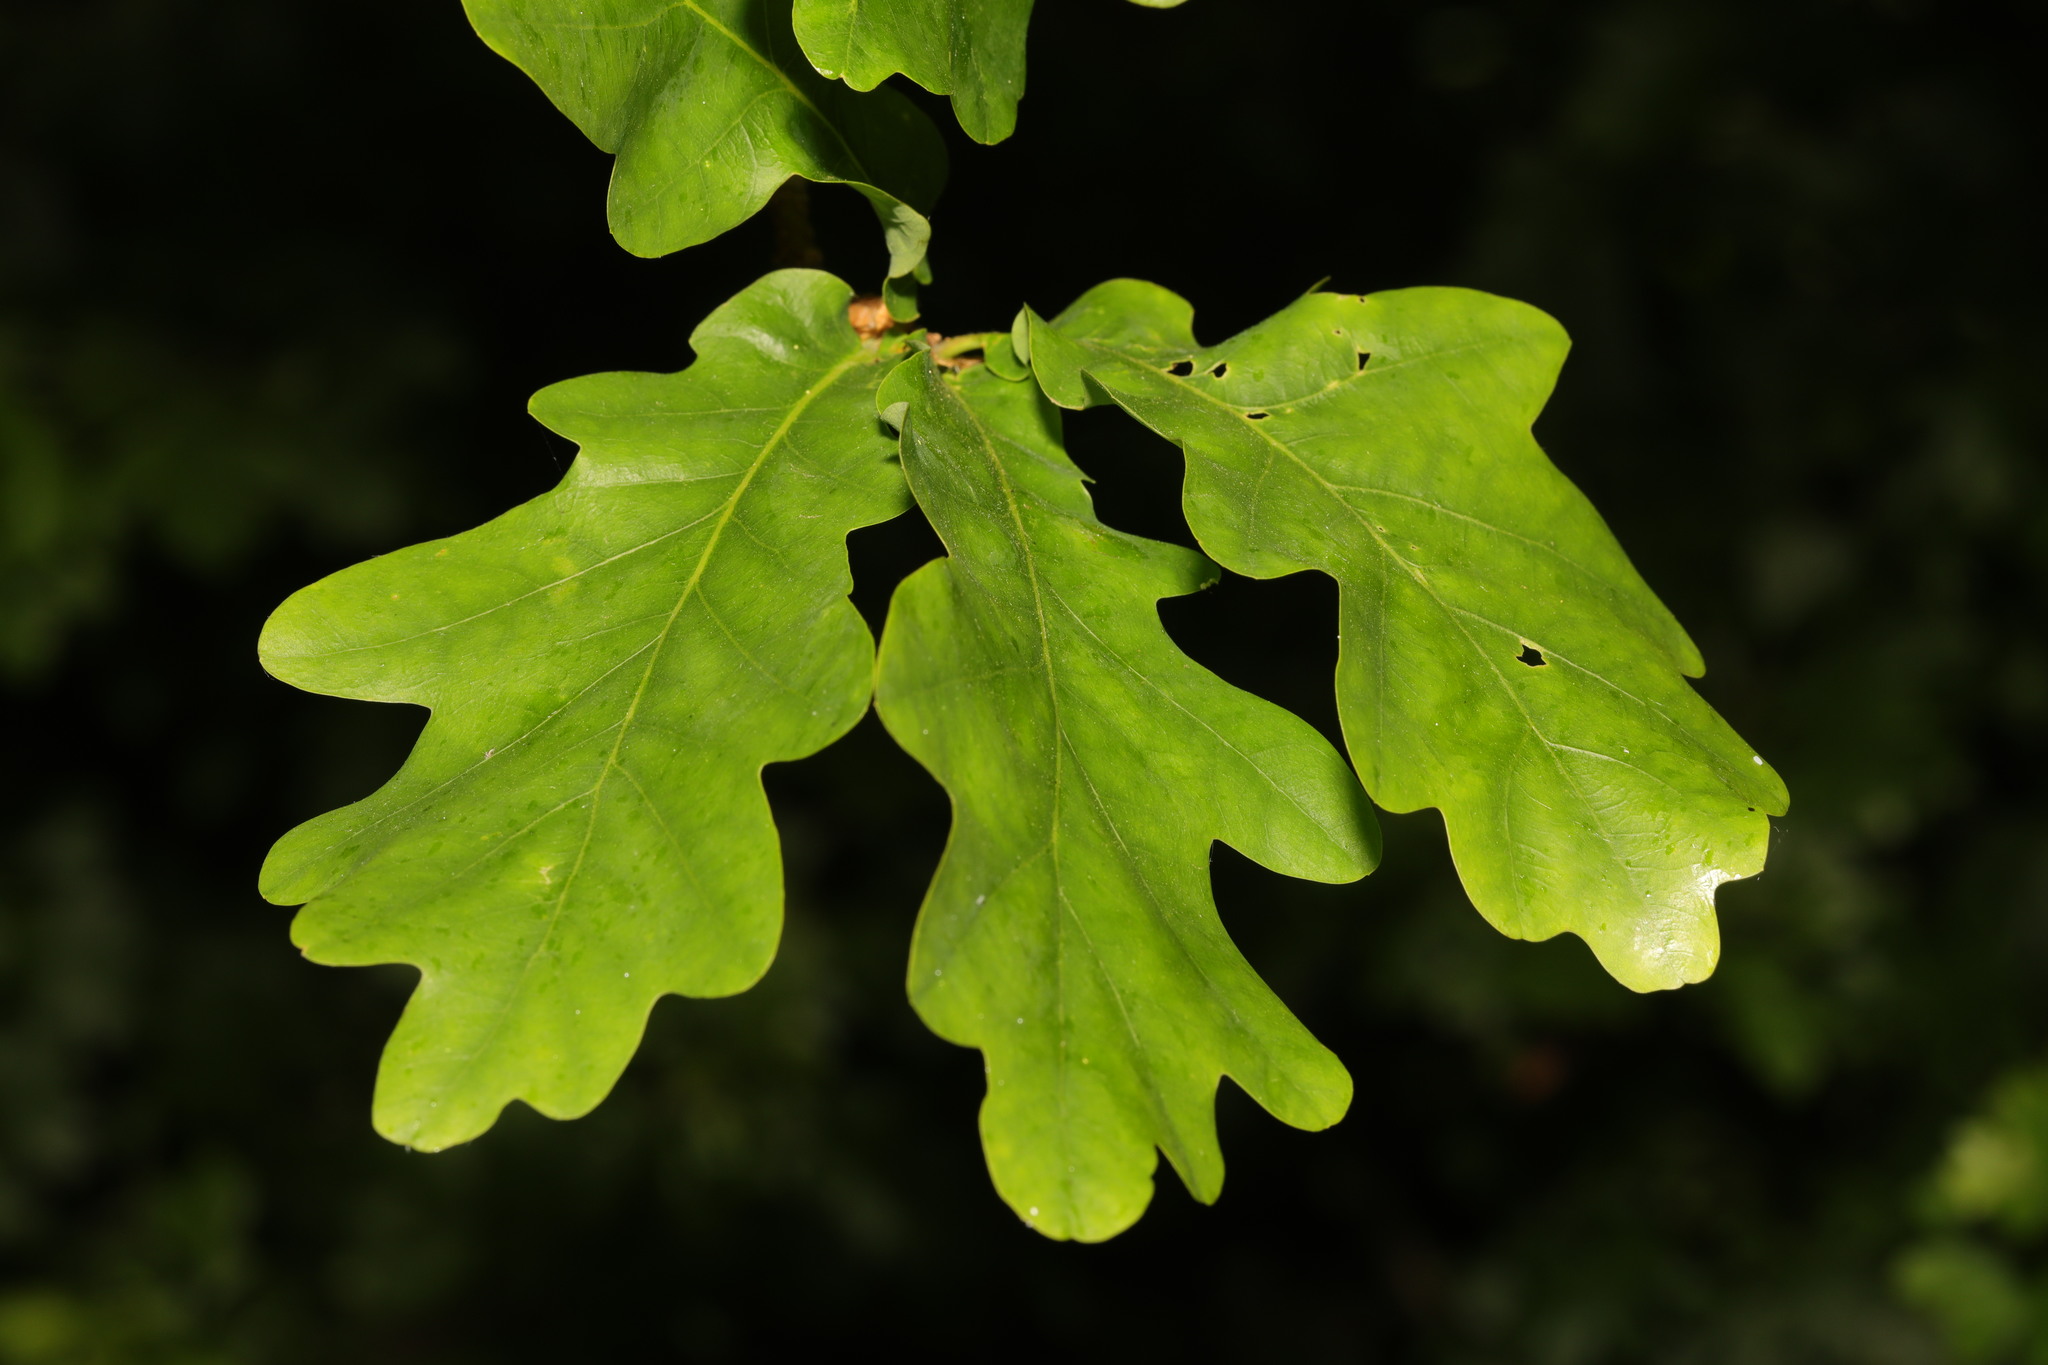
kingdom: Plantae
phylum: Tracheophyta
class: Magnoliopsida
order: Fagales
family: Fagaceae
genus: Quercus
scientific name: Quercus robur
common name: Pedunculate oak
